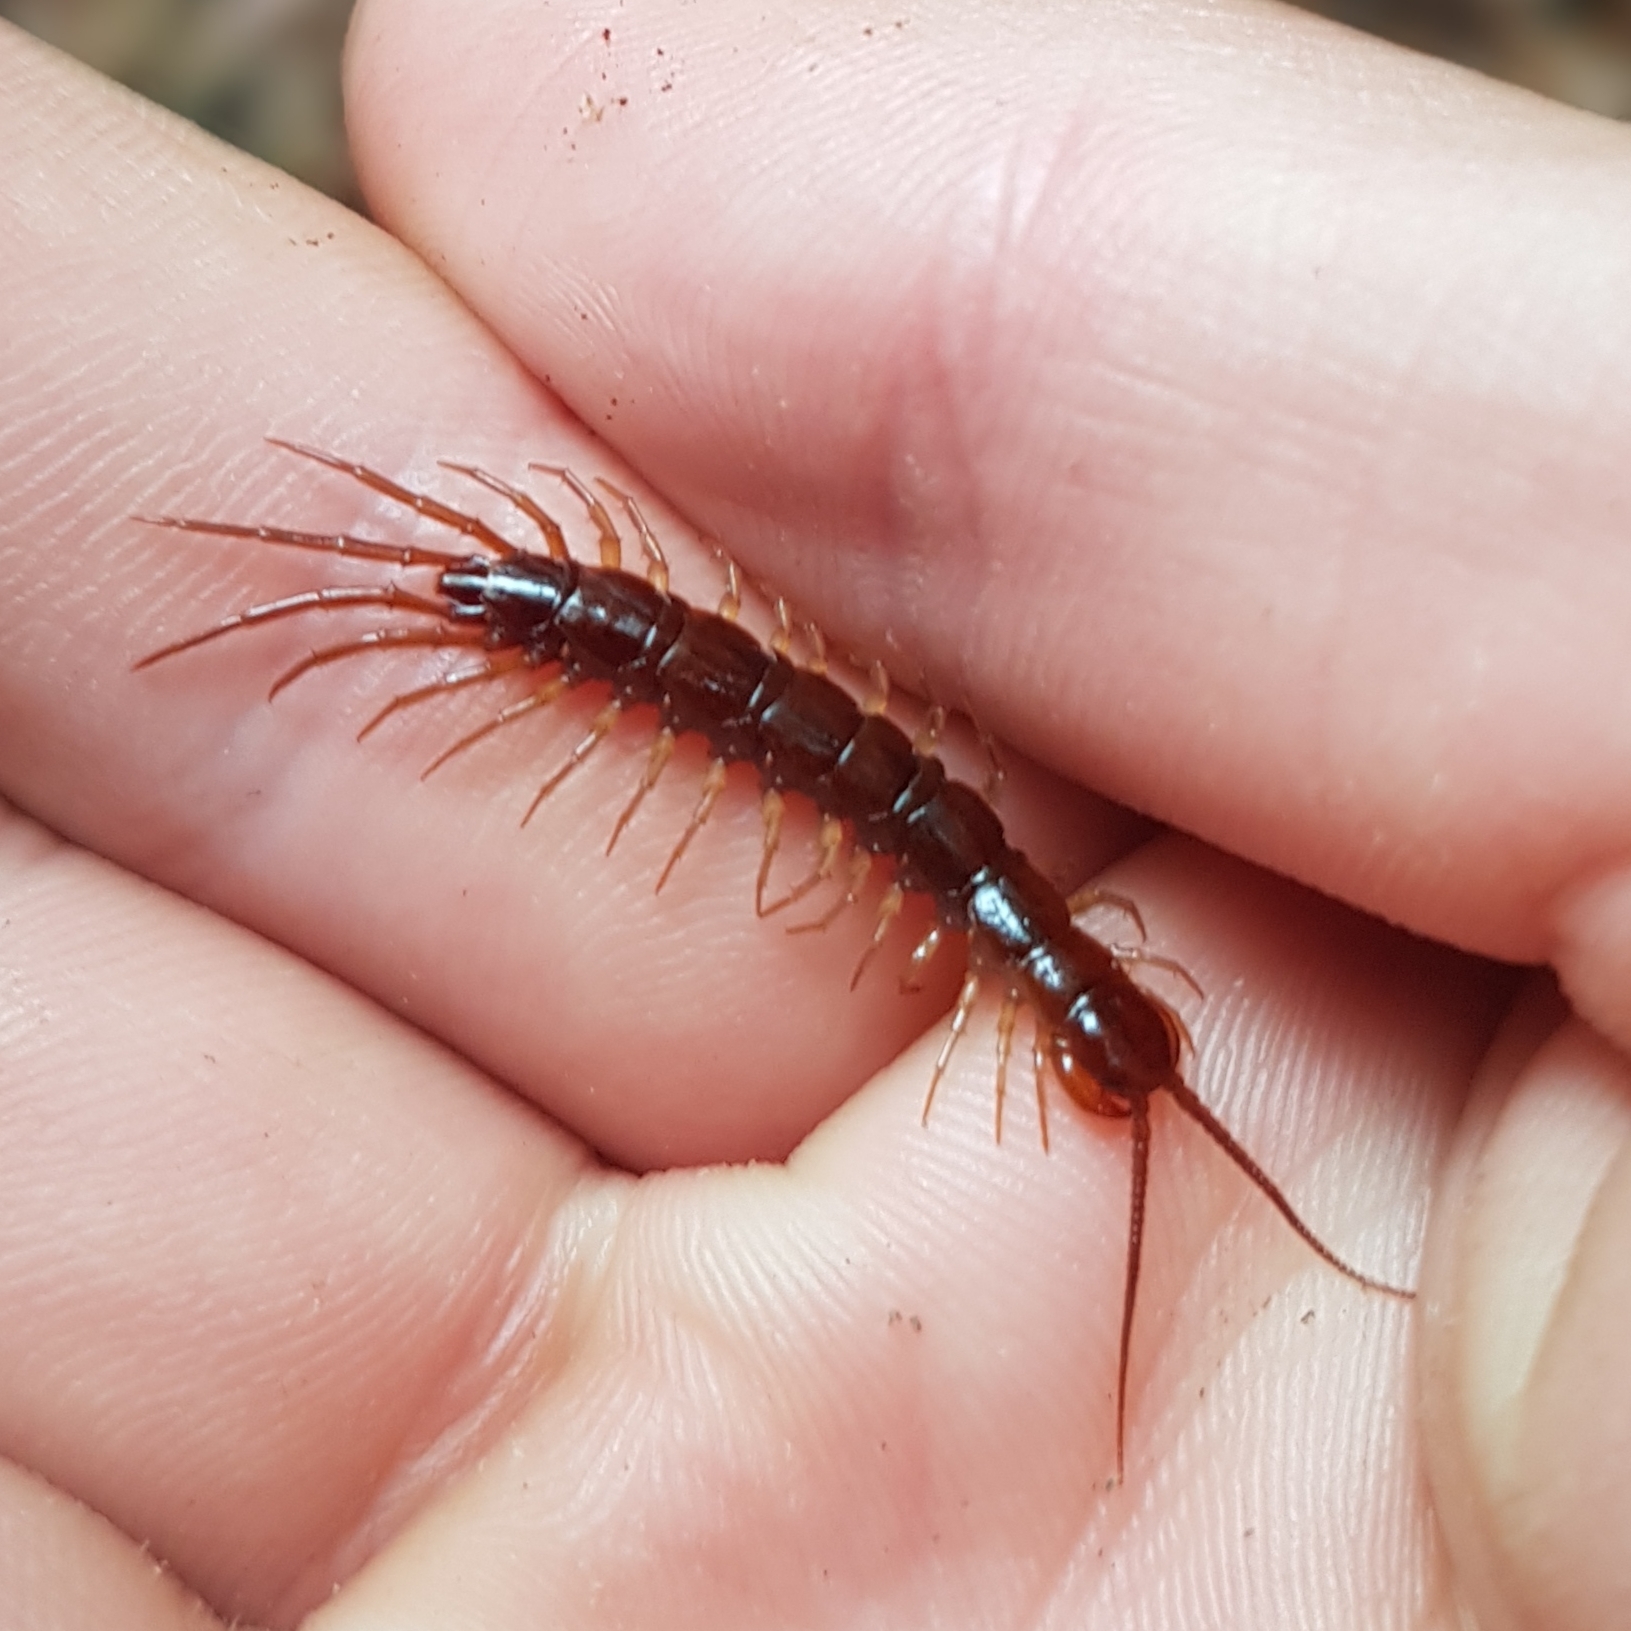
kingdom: Animalia
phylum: Arthropoda
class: Chilopoda
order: Lithobiomorpha
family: Lithobiidae
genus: Lithobius
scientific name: Lithobius forficatus
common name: Centipede
